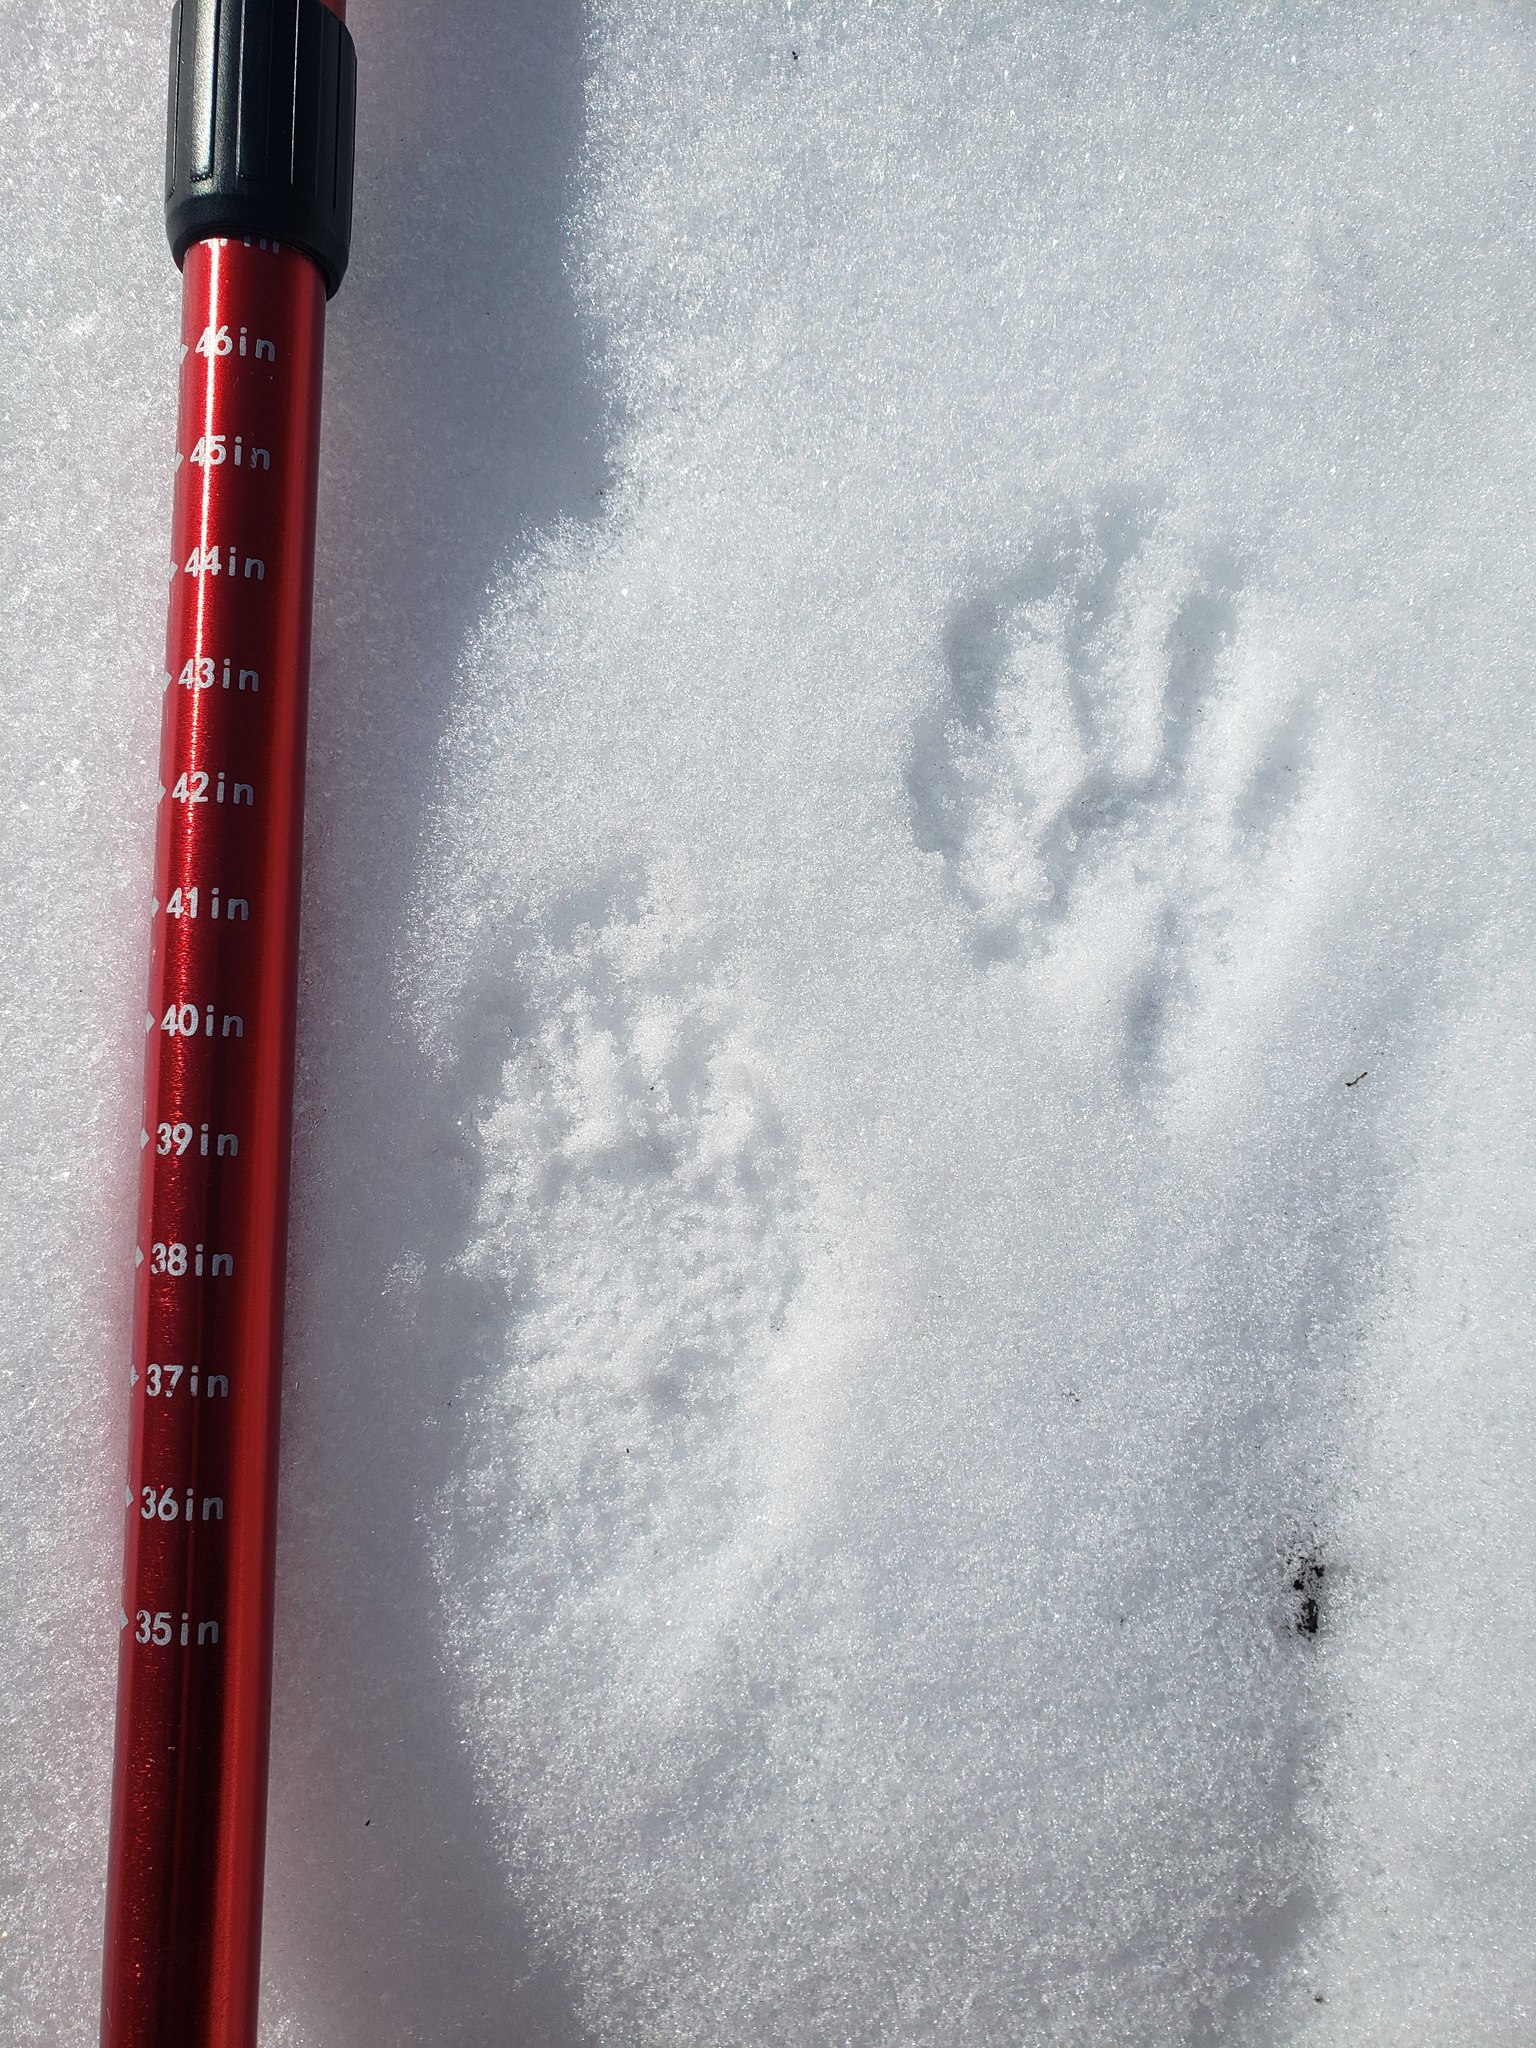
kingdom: Animalia
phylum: Chordata
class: Mammalia
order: Carnivora
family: Procyonidae
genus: Procyon
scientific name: Procyon lotor
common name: Raccoon
